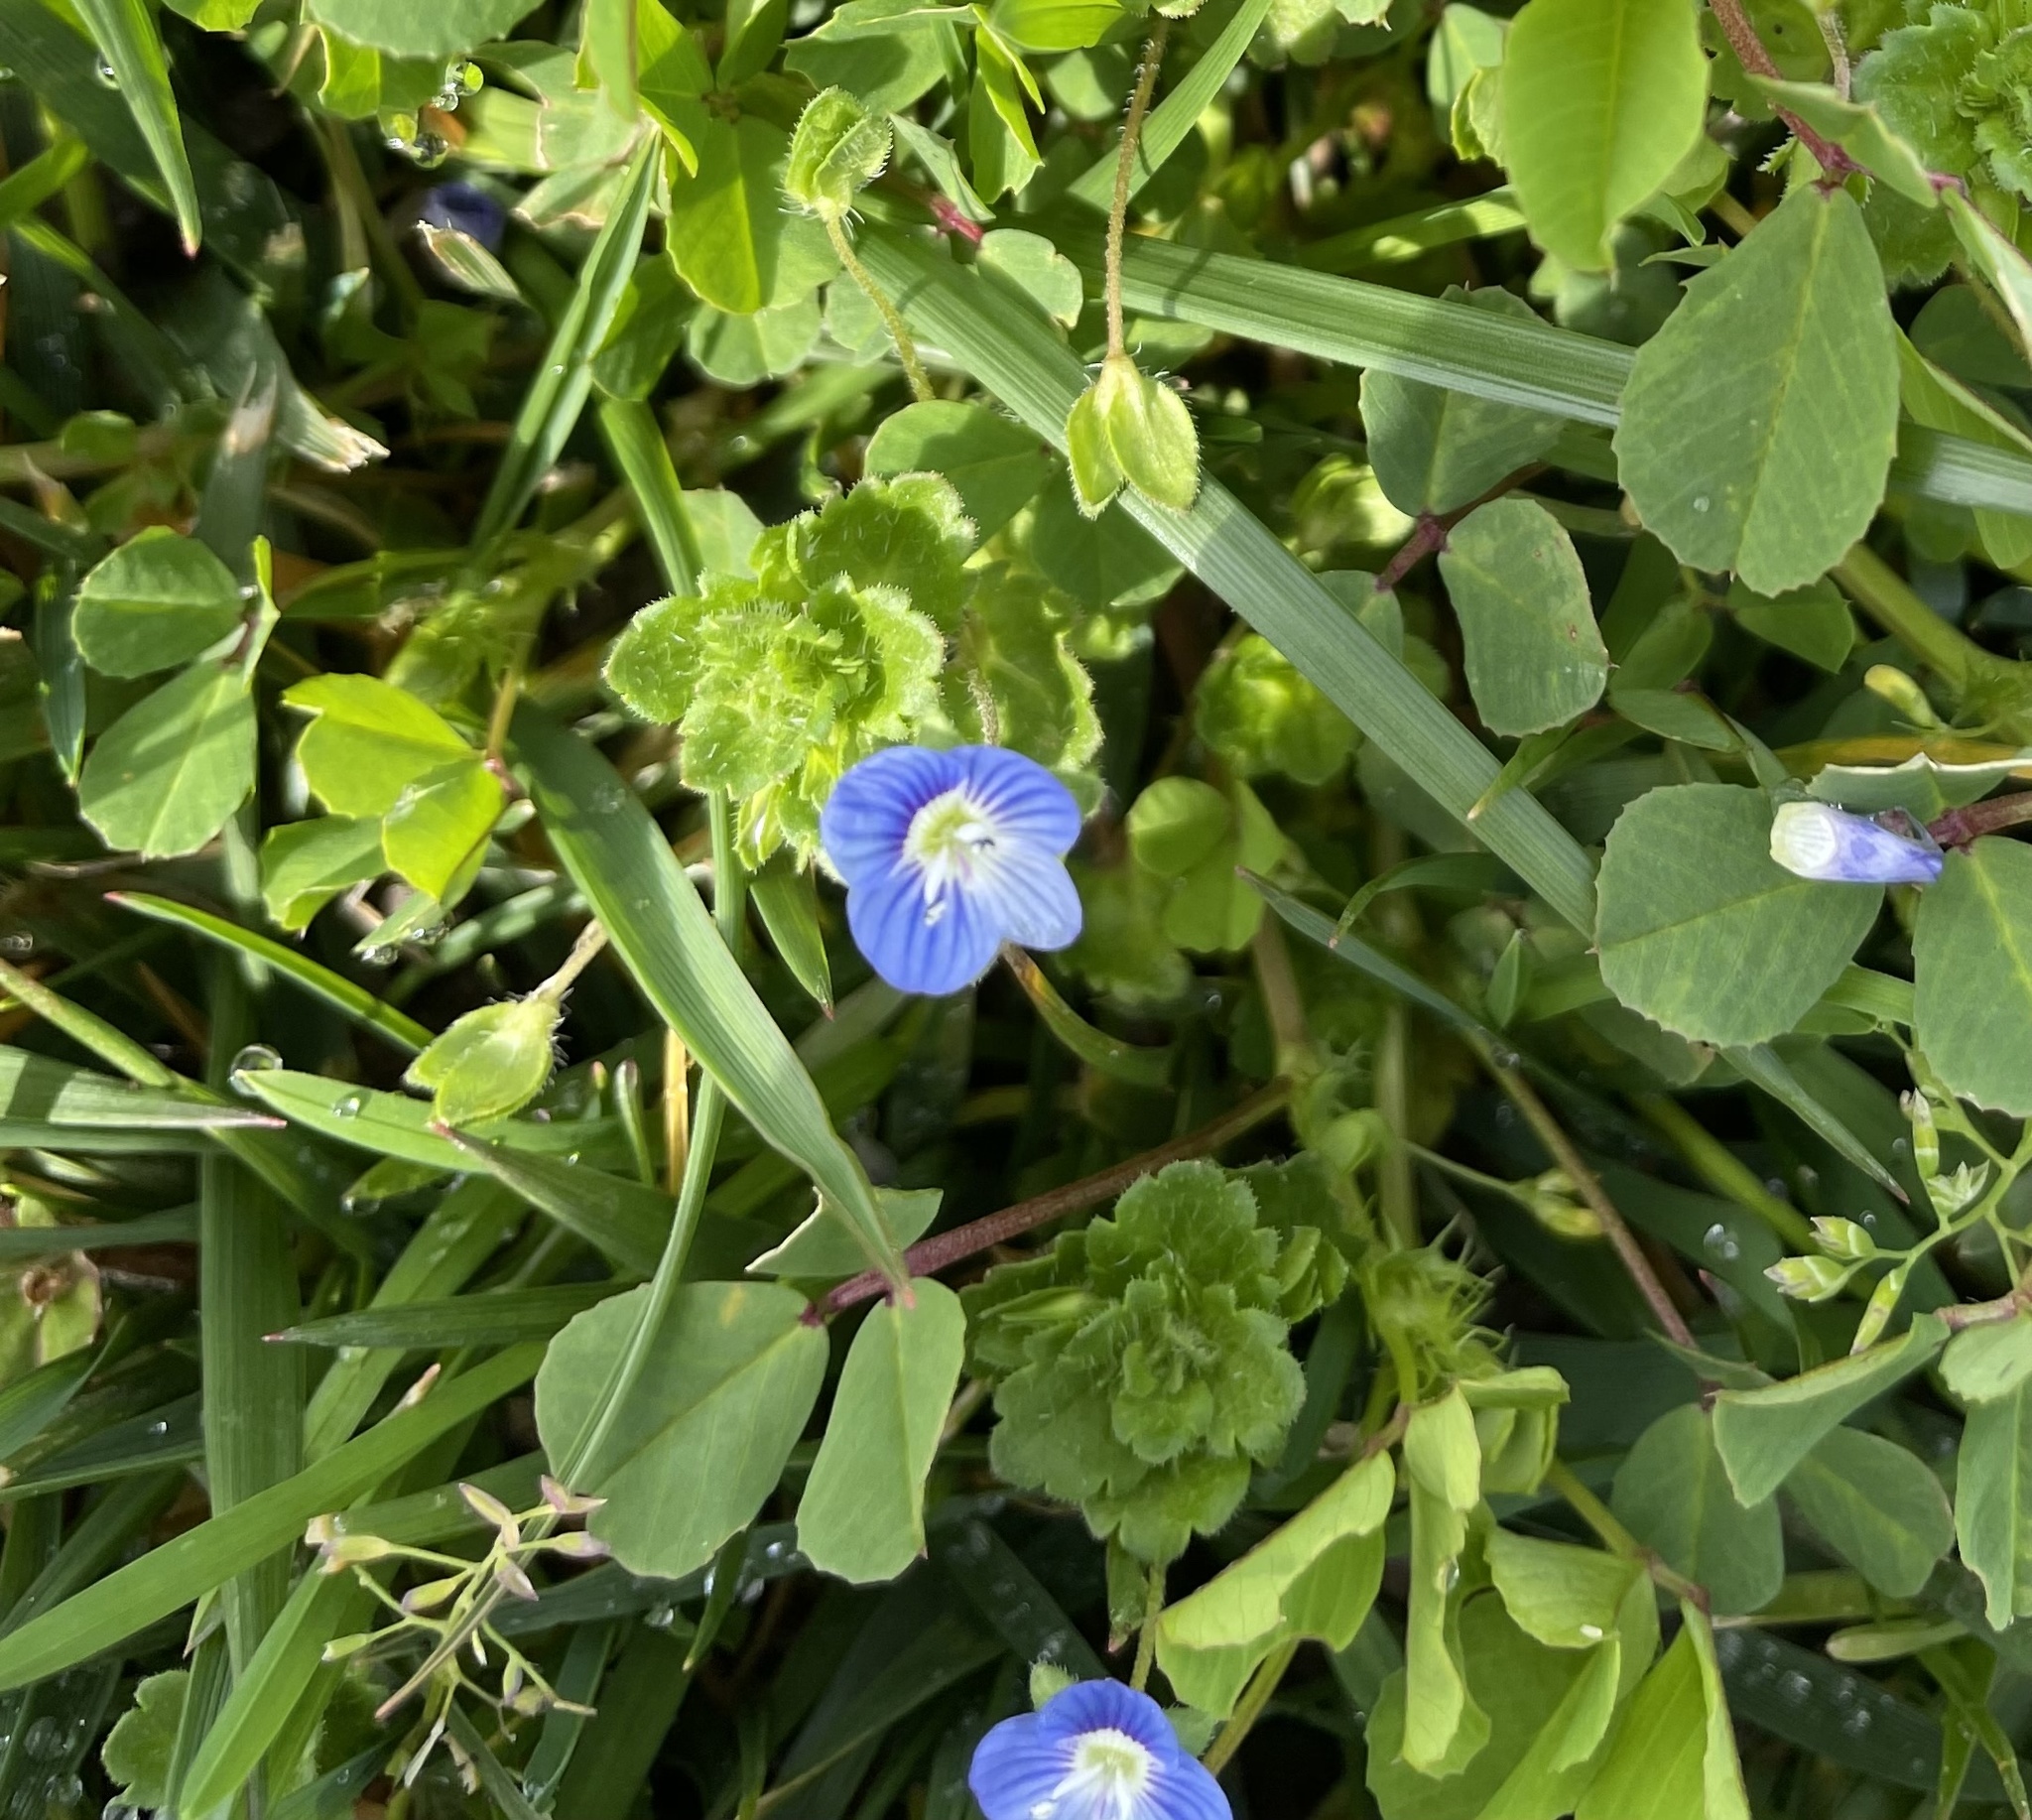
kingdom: Plantae
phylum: Tracheophyta
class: Magnoliopsida
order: Lamiales
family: Plantaginaceae
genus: Veronica
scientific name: Veronica persica
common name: Common field-speedwell
